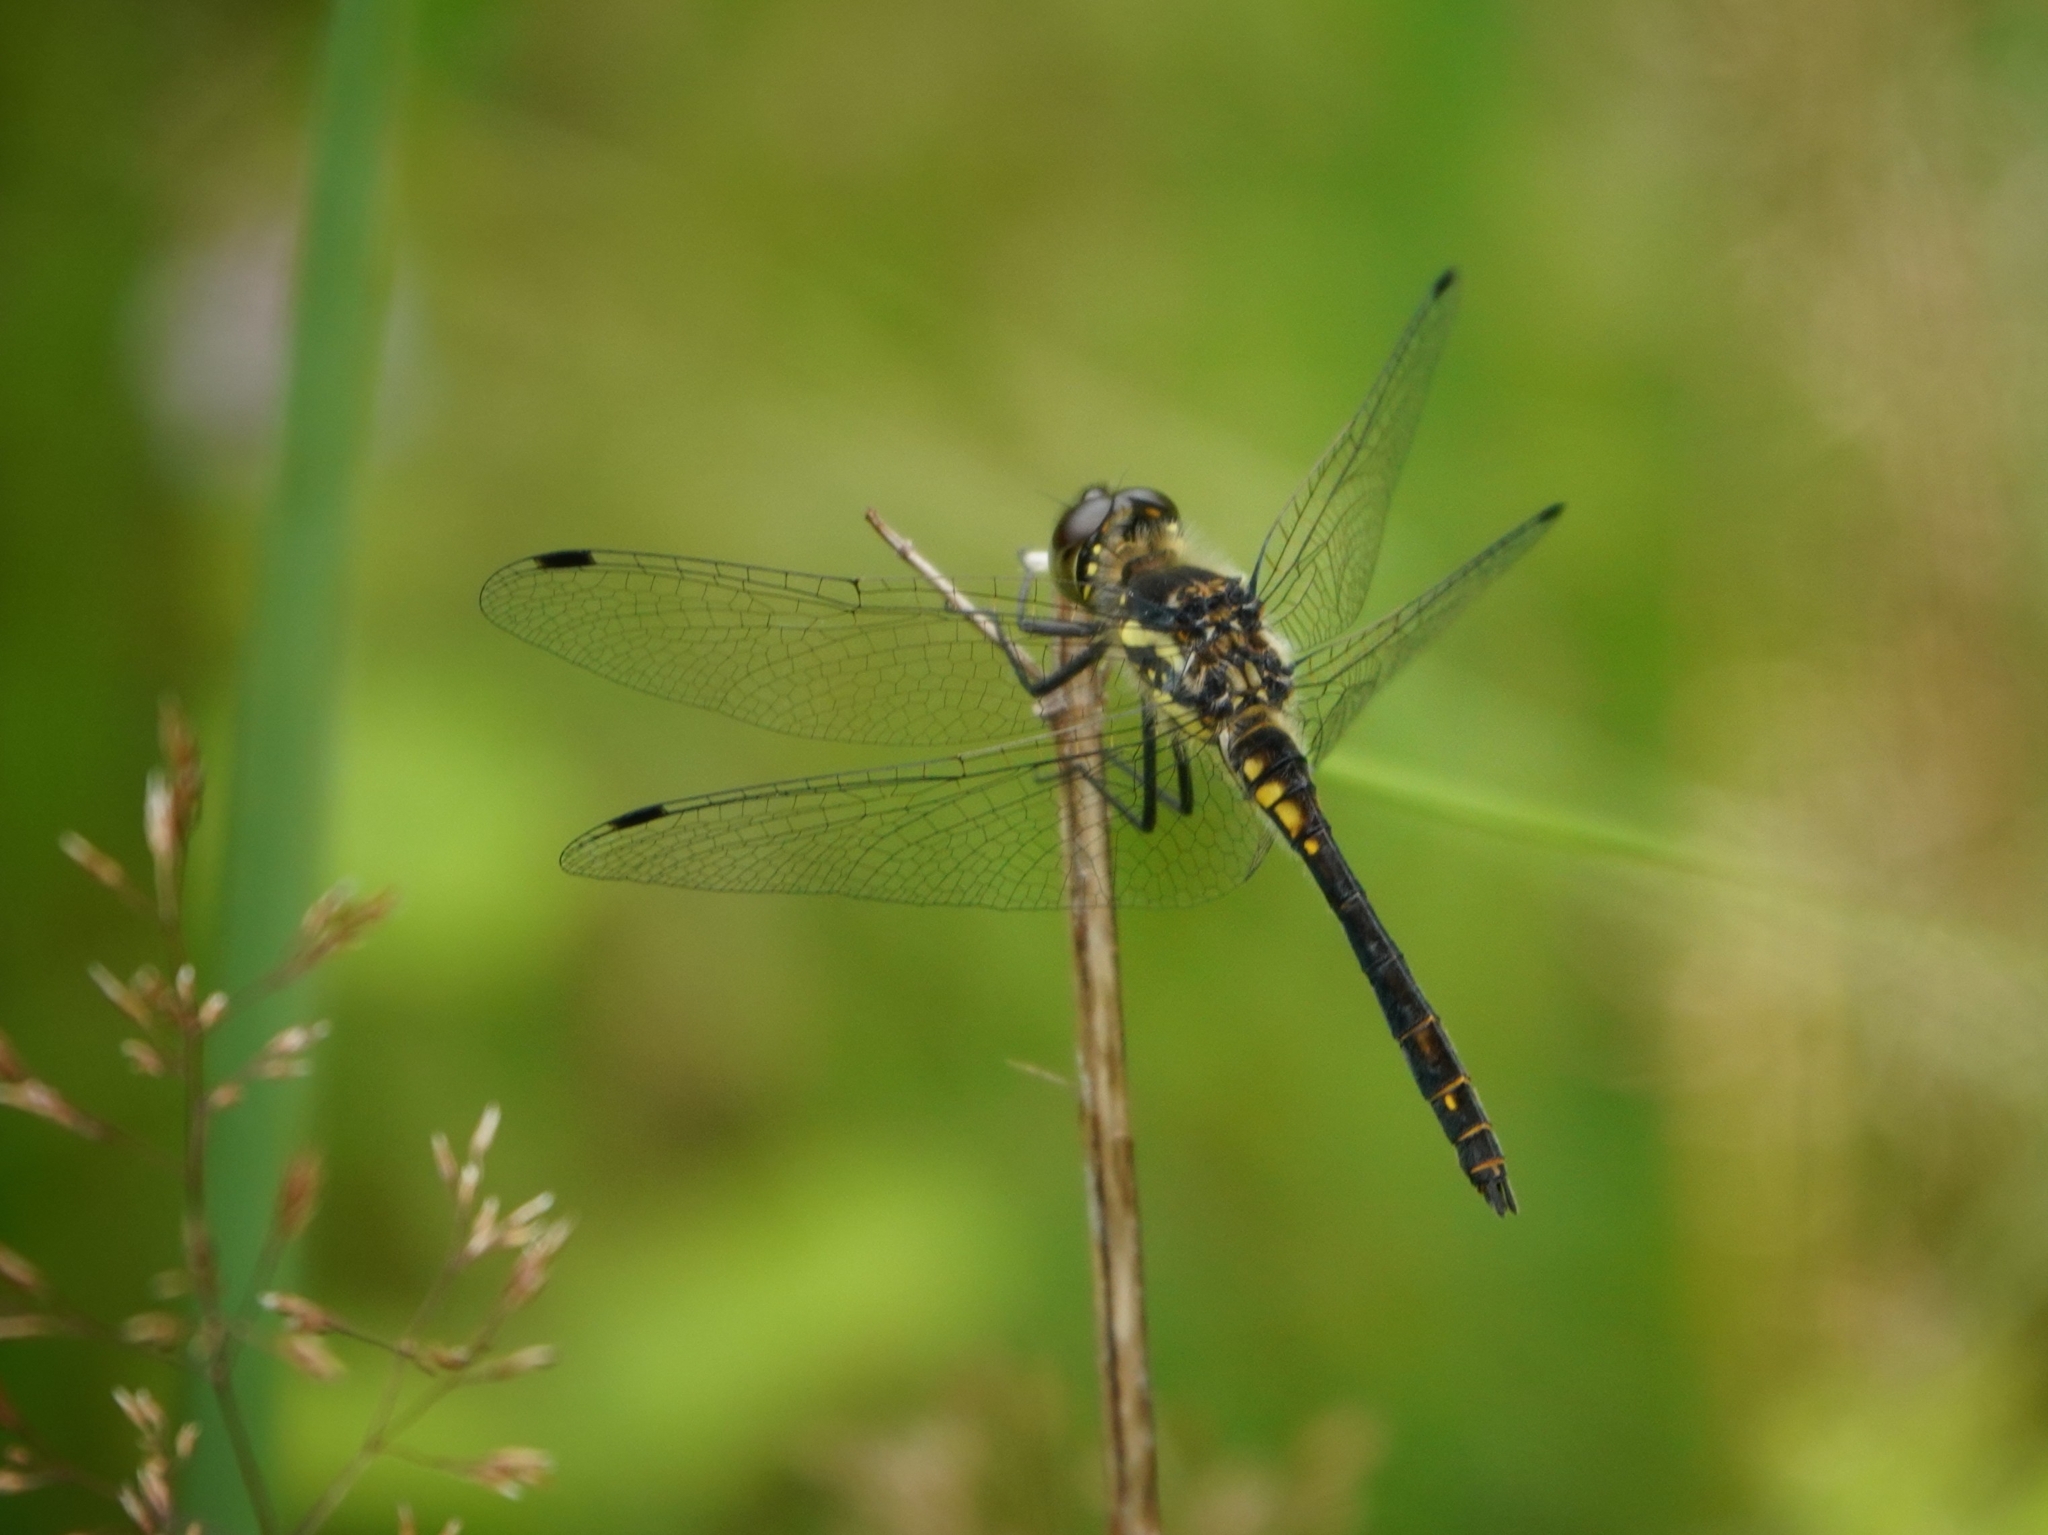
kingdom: Animalia
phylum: Arthropoda
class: Insecta
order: Odonata
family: Libellulidae
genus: Sympetrum
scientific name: Sympetrum danae
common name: Black darter
